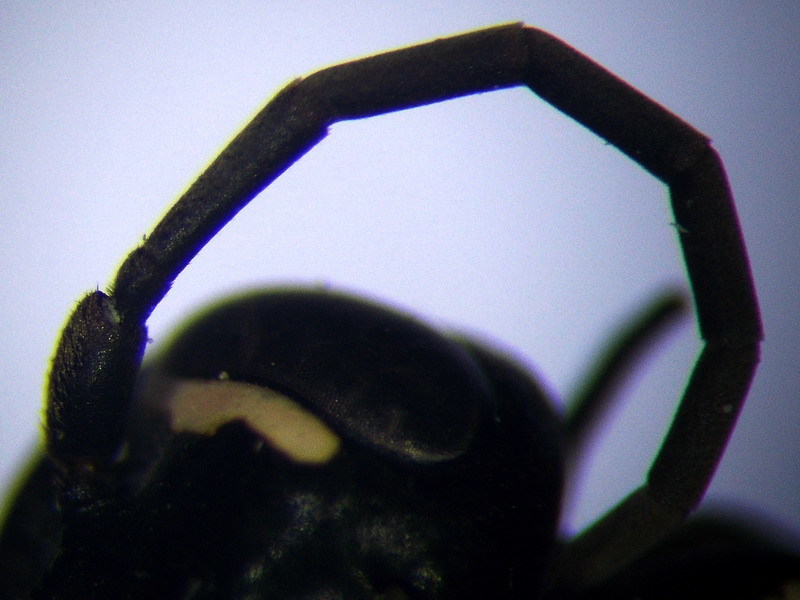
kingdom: Animalia
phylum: Arthropoda
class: Insecta
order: Hymenoptera
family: Pompilidae
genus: Cryptocheilus
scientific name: Cryptocheilus richardsi
